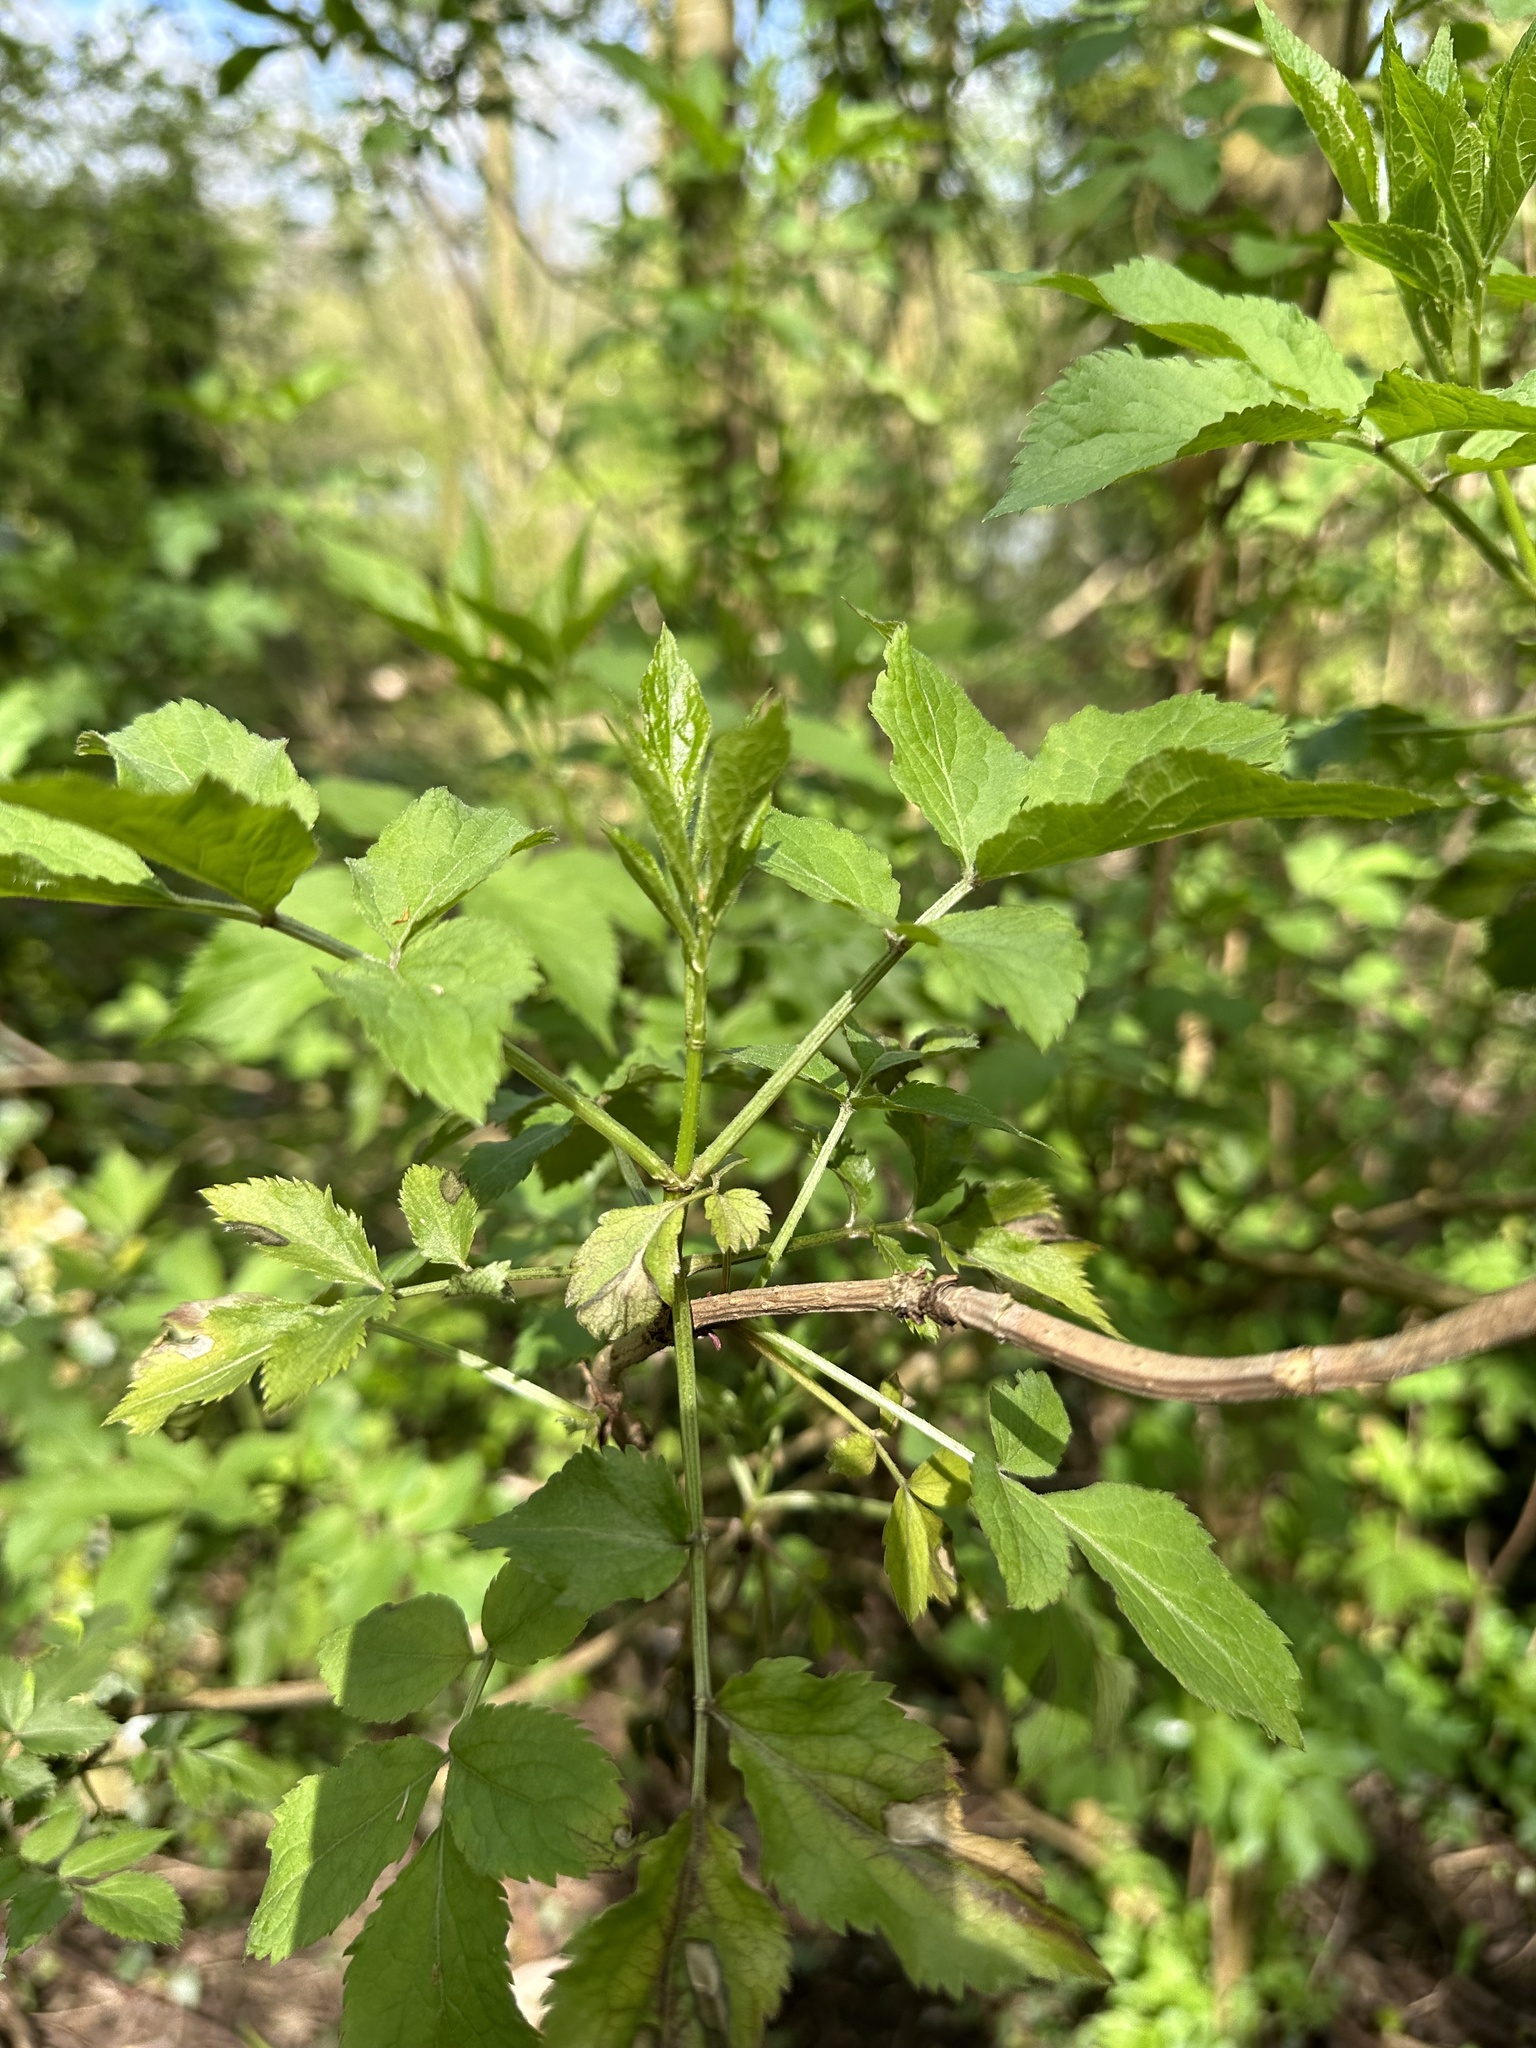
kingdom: Plantae
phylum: Tracheophyta
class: Magnoliopsida
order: Dipsacales
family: Viburnaceae
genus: Sambucus
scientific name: Sambucus nigra
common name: Elder
